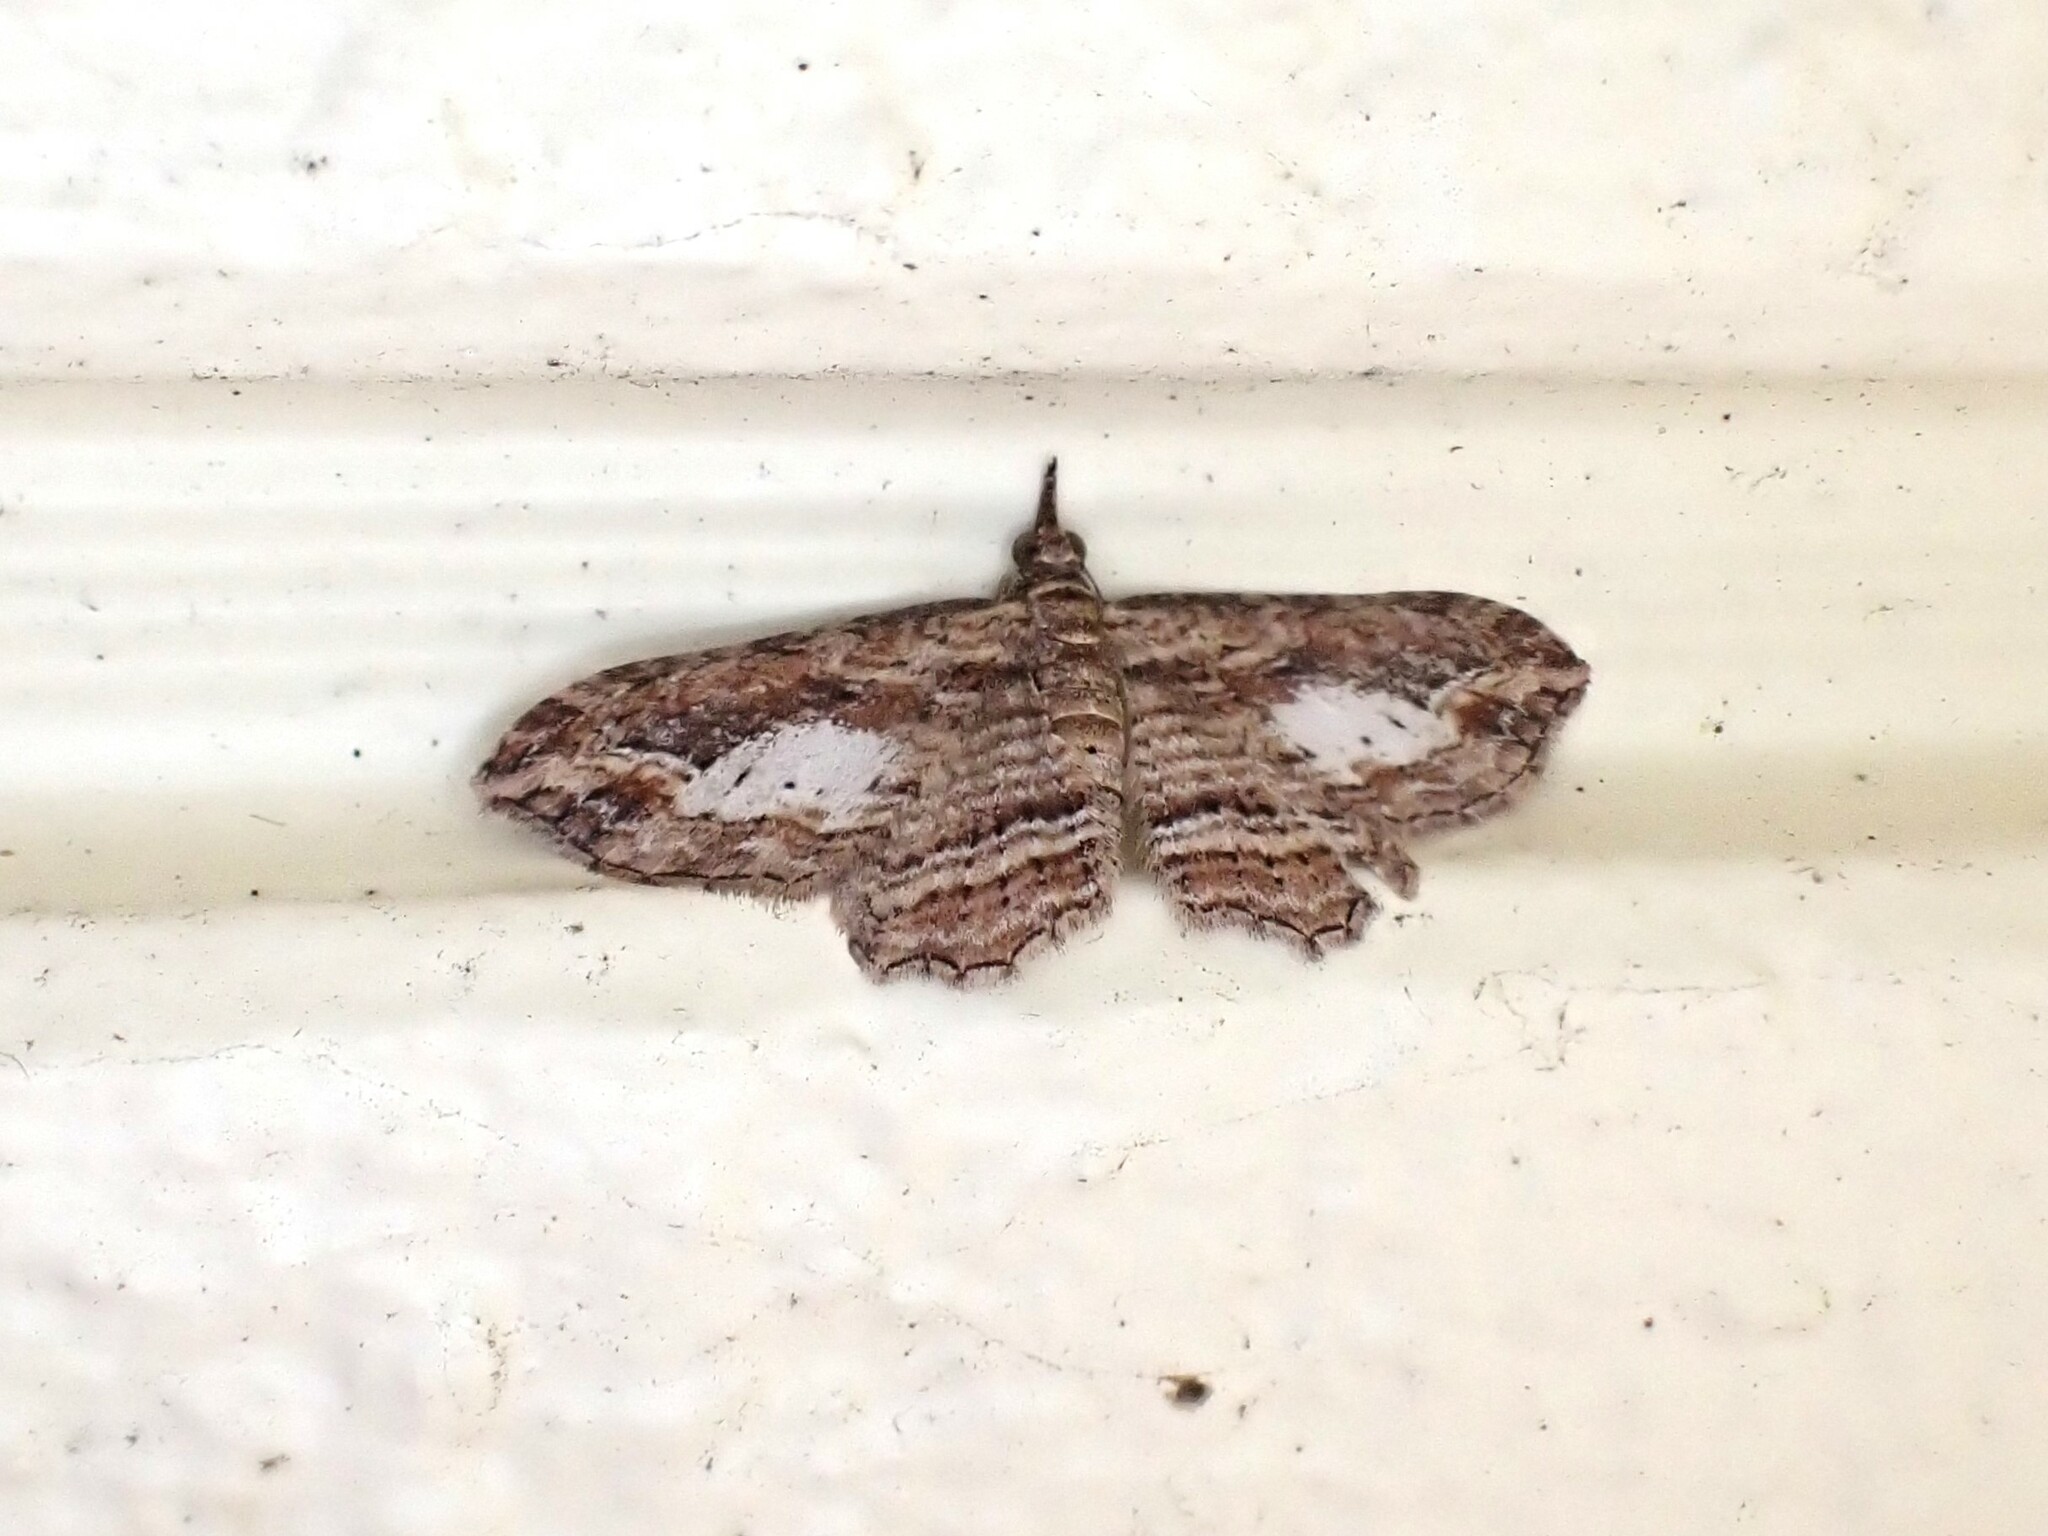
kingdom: Animalia
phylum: Arthropoda
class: Insecta
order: Lepidoptera
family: Geometridae
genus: Chloroclystis
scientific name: Chloroclystis filata
